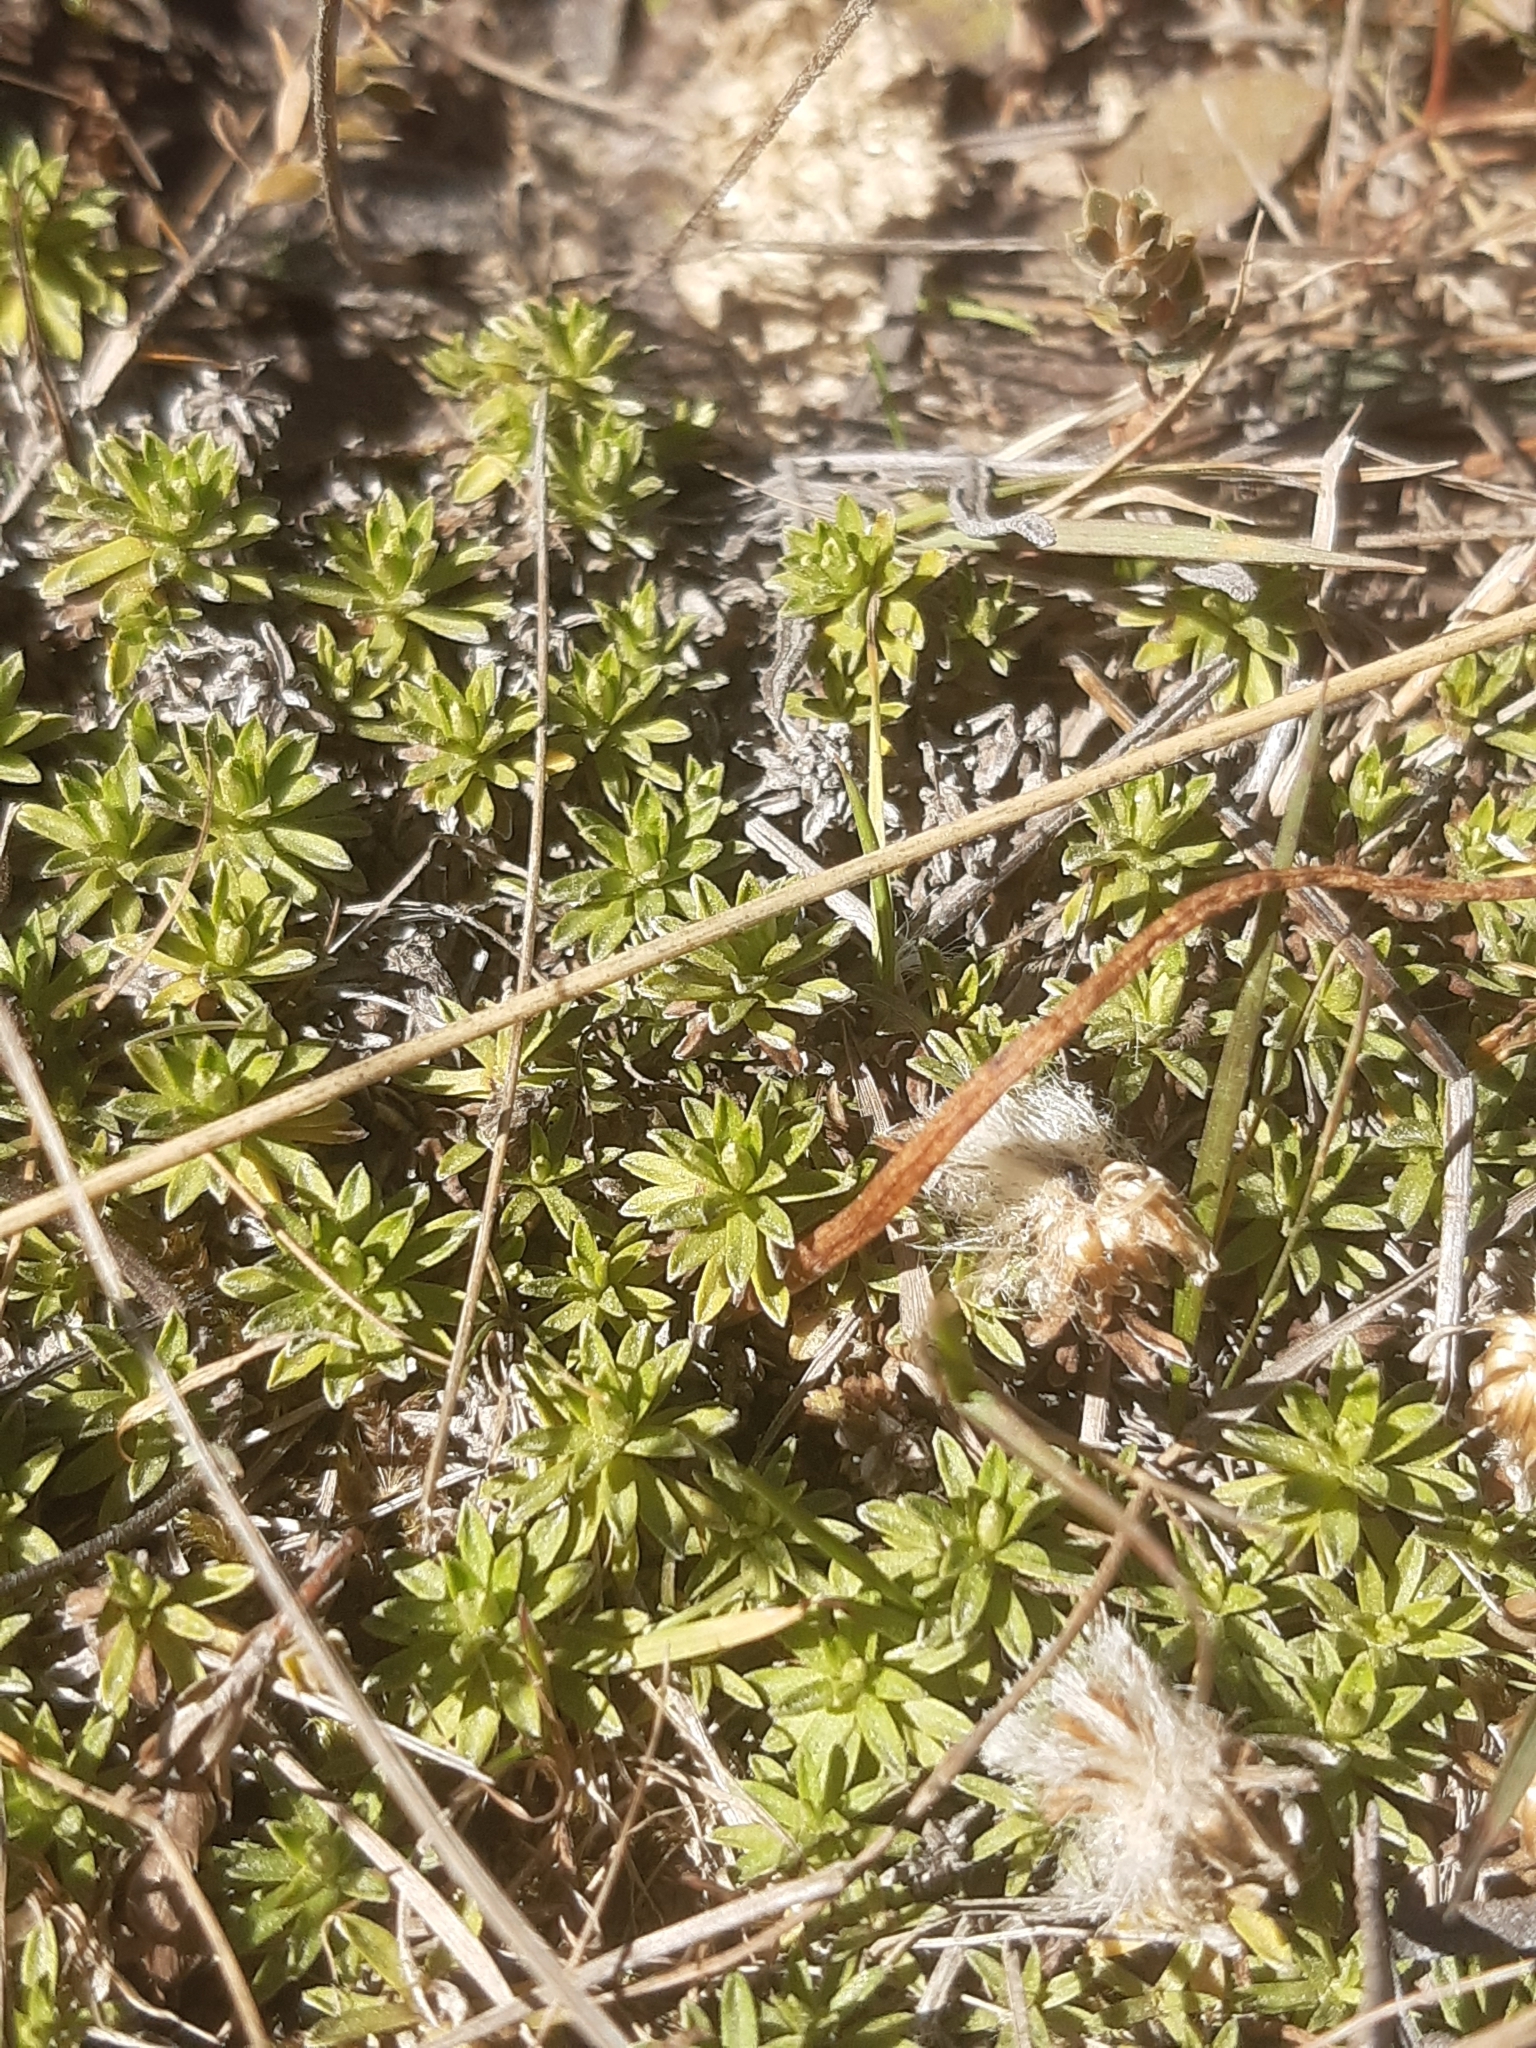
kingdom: Plantae
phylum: Tracheophyta
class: Magnoliopsida
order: Asterales
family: Asteraceae
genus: Raoulia
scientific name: Raoulia subsericea
